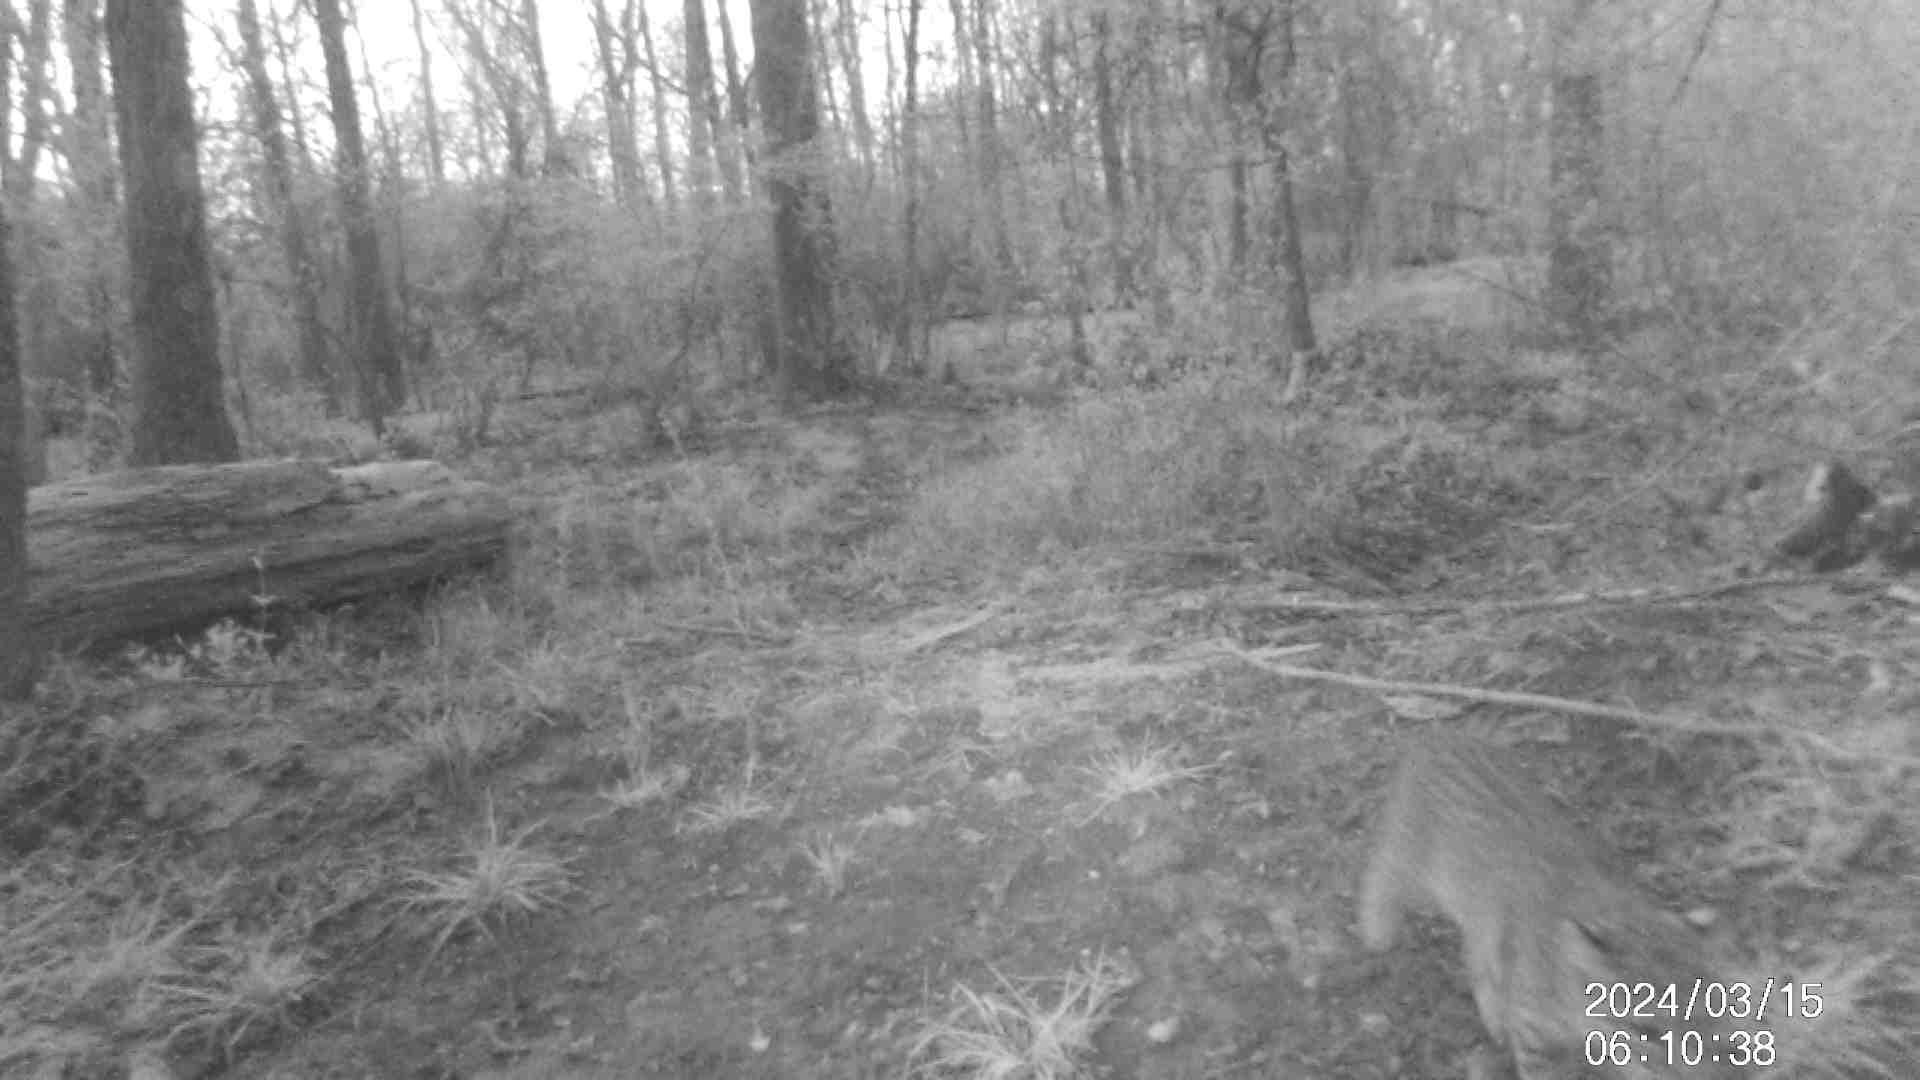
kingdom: Animalia
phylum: Chordata
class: Mammalia
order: Carnivora
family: Felidae
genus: Lynx
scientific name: Lynx rufus
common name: Bobcat
